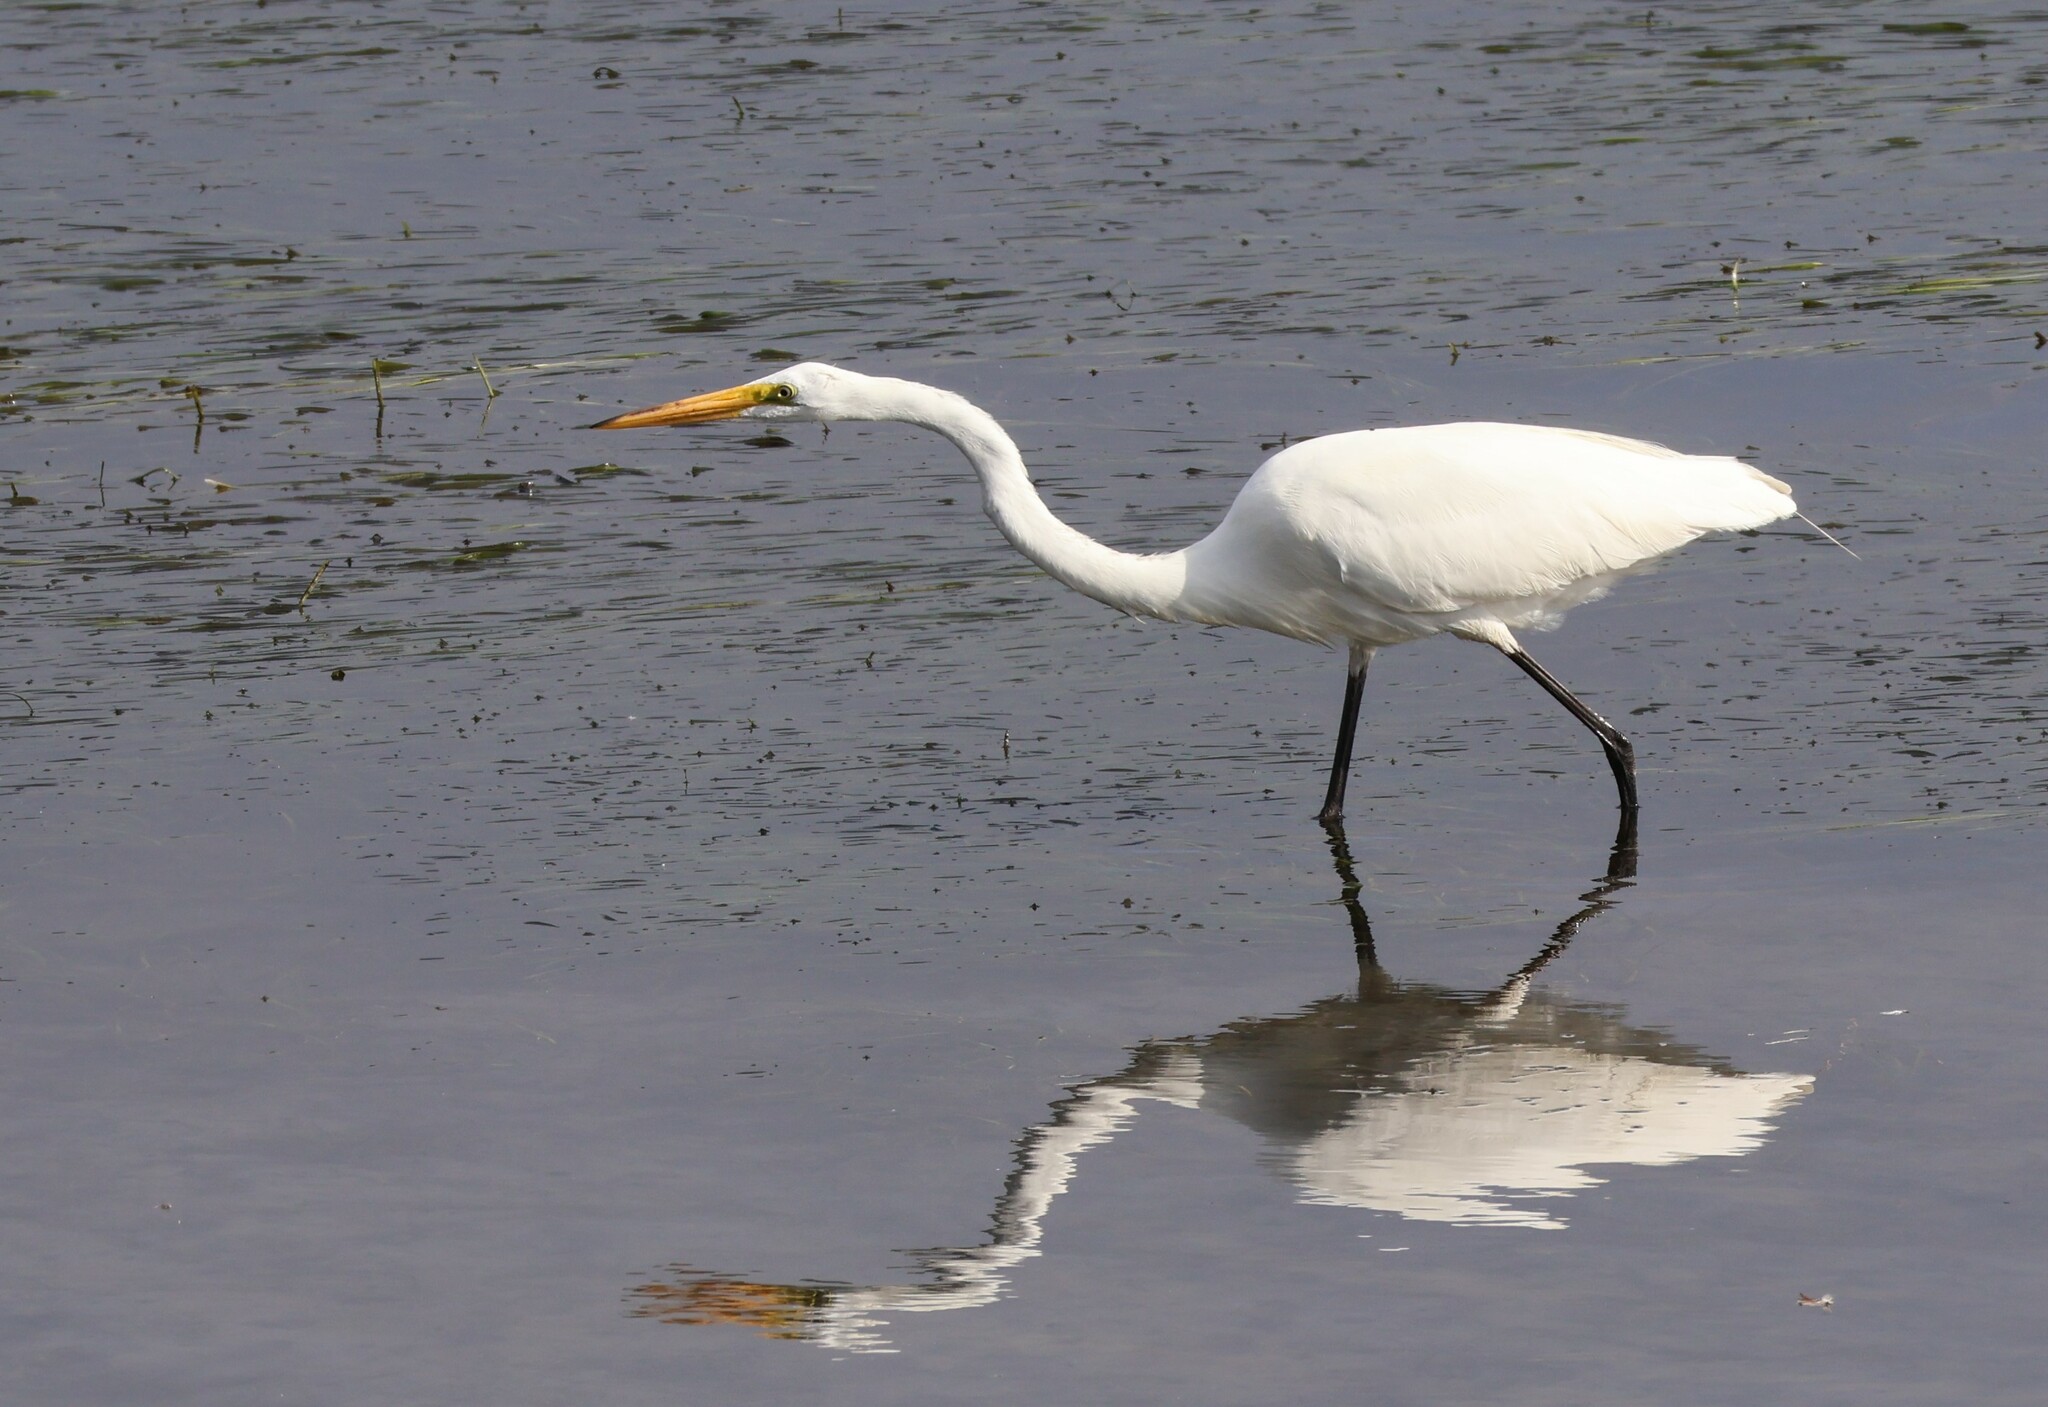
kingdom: Animalia
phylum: Chordata
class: Aves
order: Pelecaniformes
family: Ardeidae
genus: Ardea
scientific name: Ardea alba
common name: Great egret
